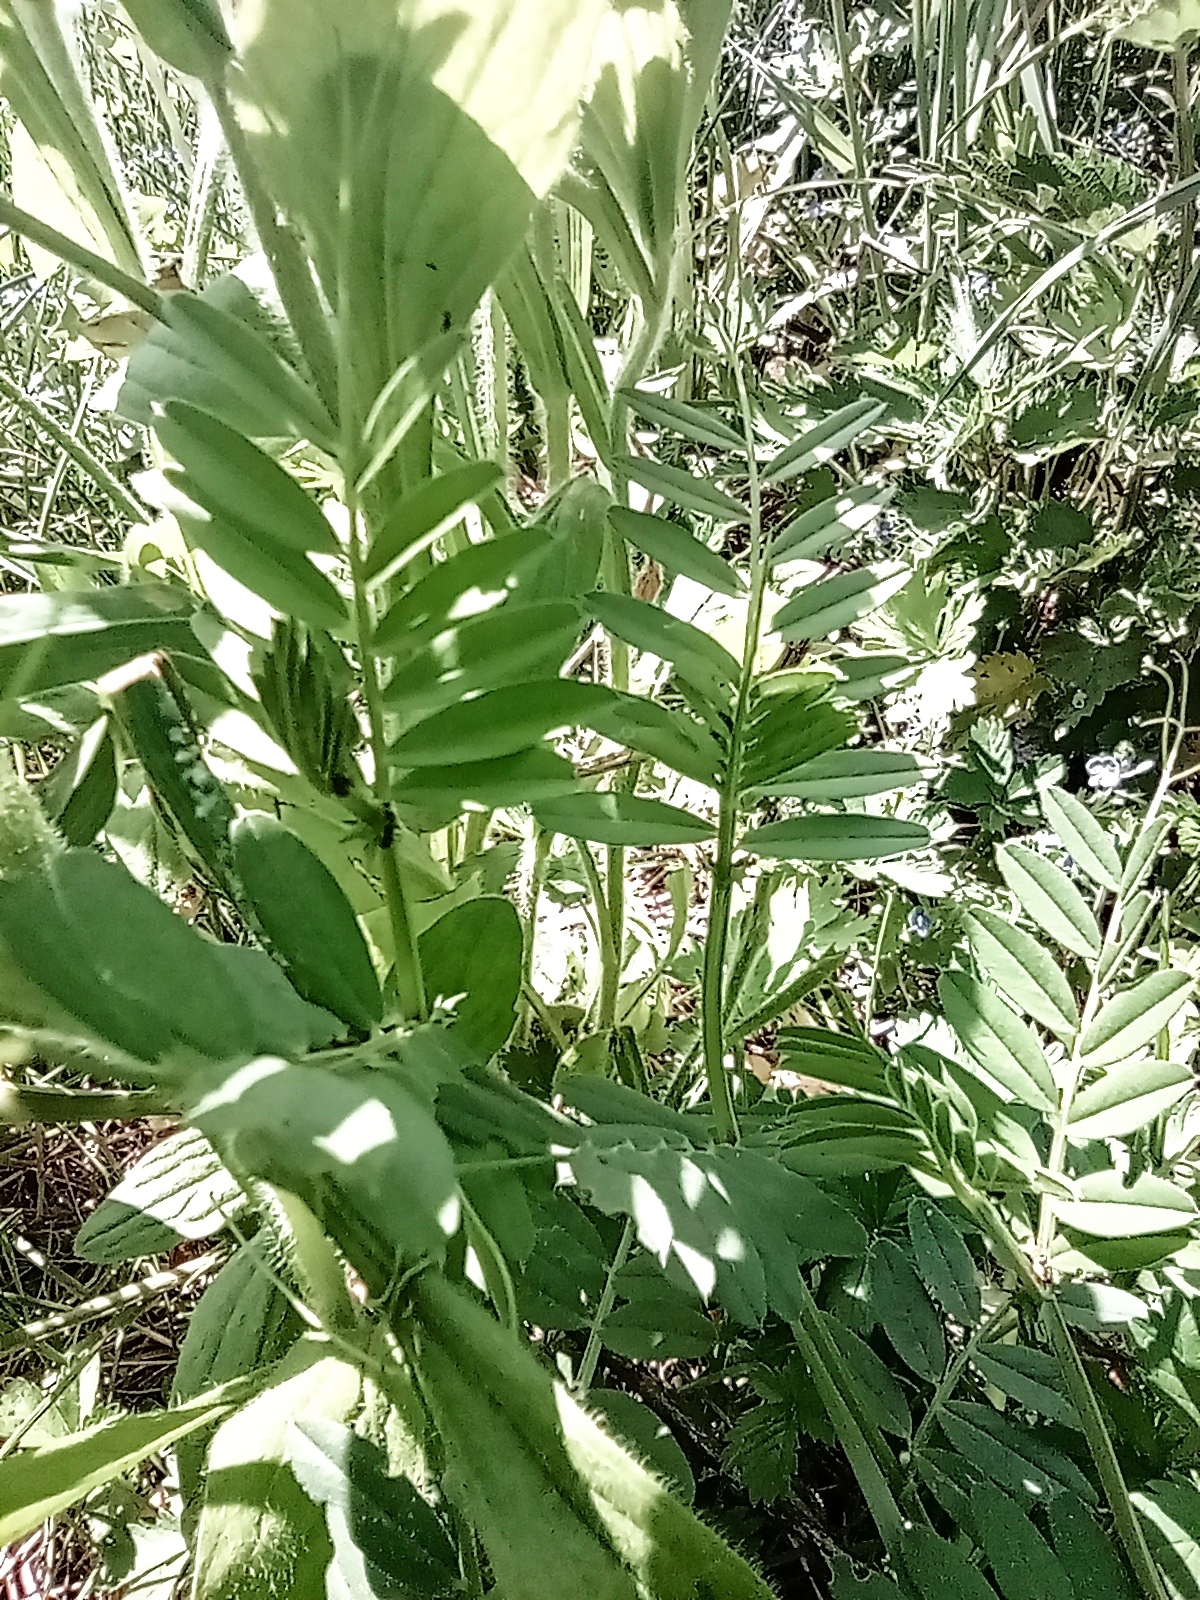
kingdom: Plantae
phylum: Tracheophyta
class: Magnoliopsida
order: Fabales
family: Fabaceae
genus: Vicia
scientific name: Vicia sativa
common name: Garden vetch
